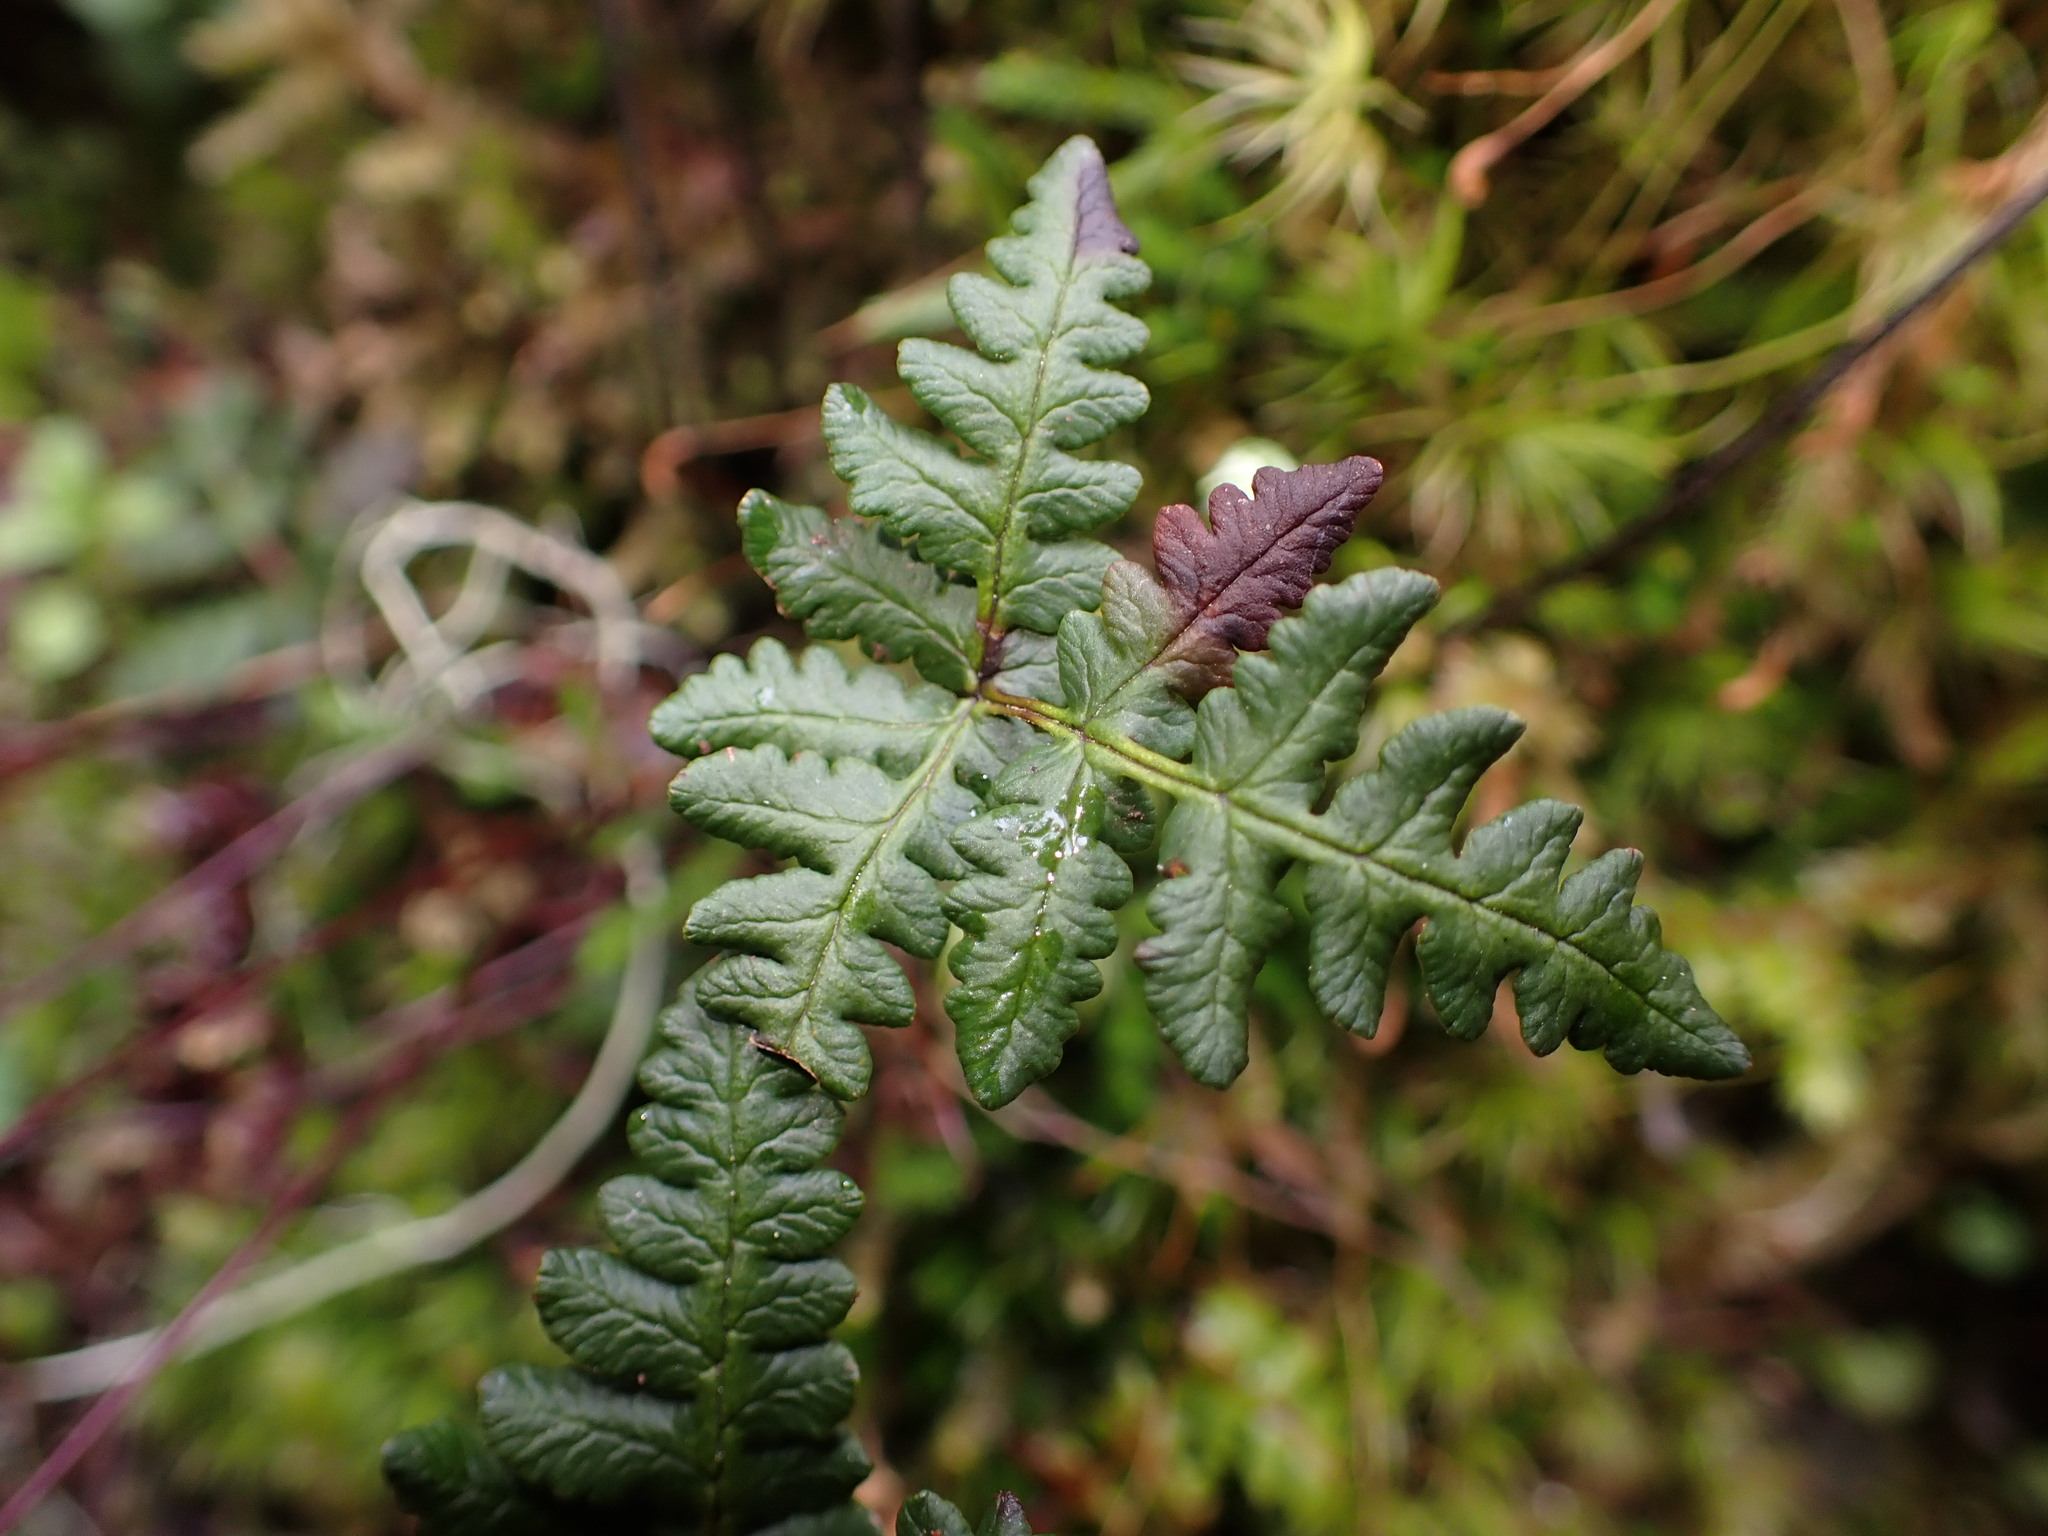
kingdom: Plantae
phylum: Tracheophyta
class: Polypodiopsida
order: Polypodiales
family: Pteridaceae
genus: Pentagramma
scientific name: Pentagramma triangularis
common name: Gold fern
